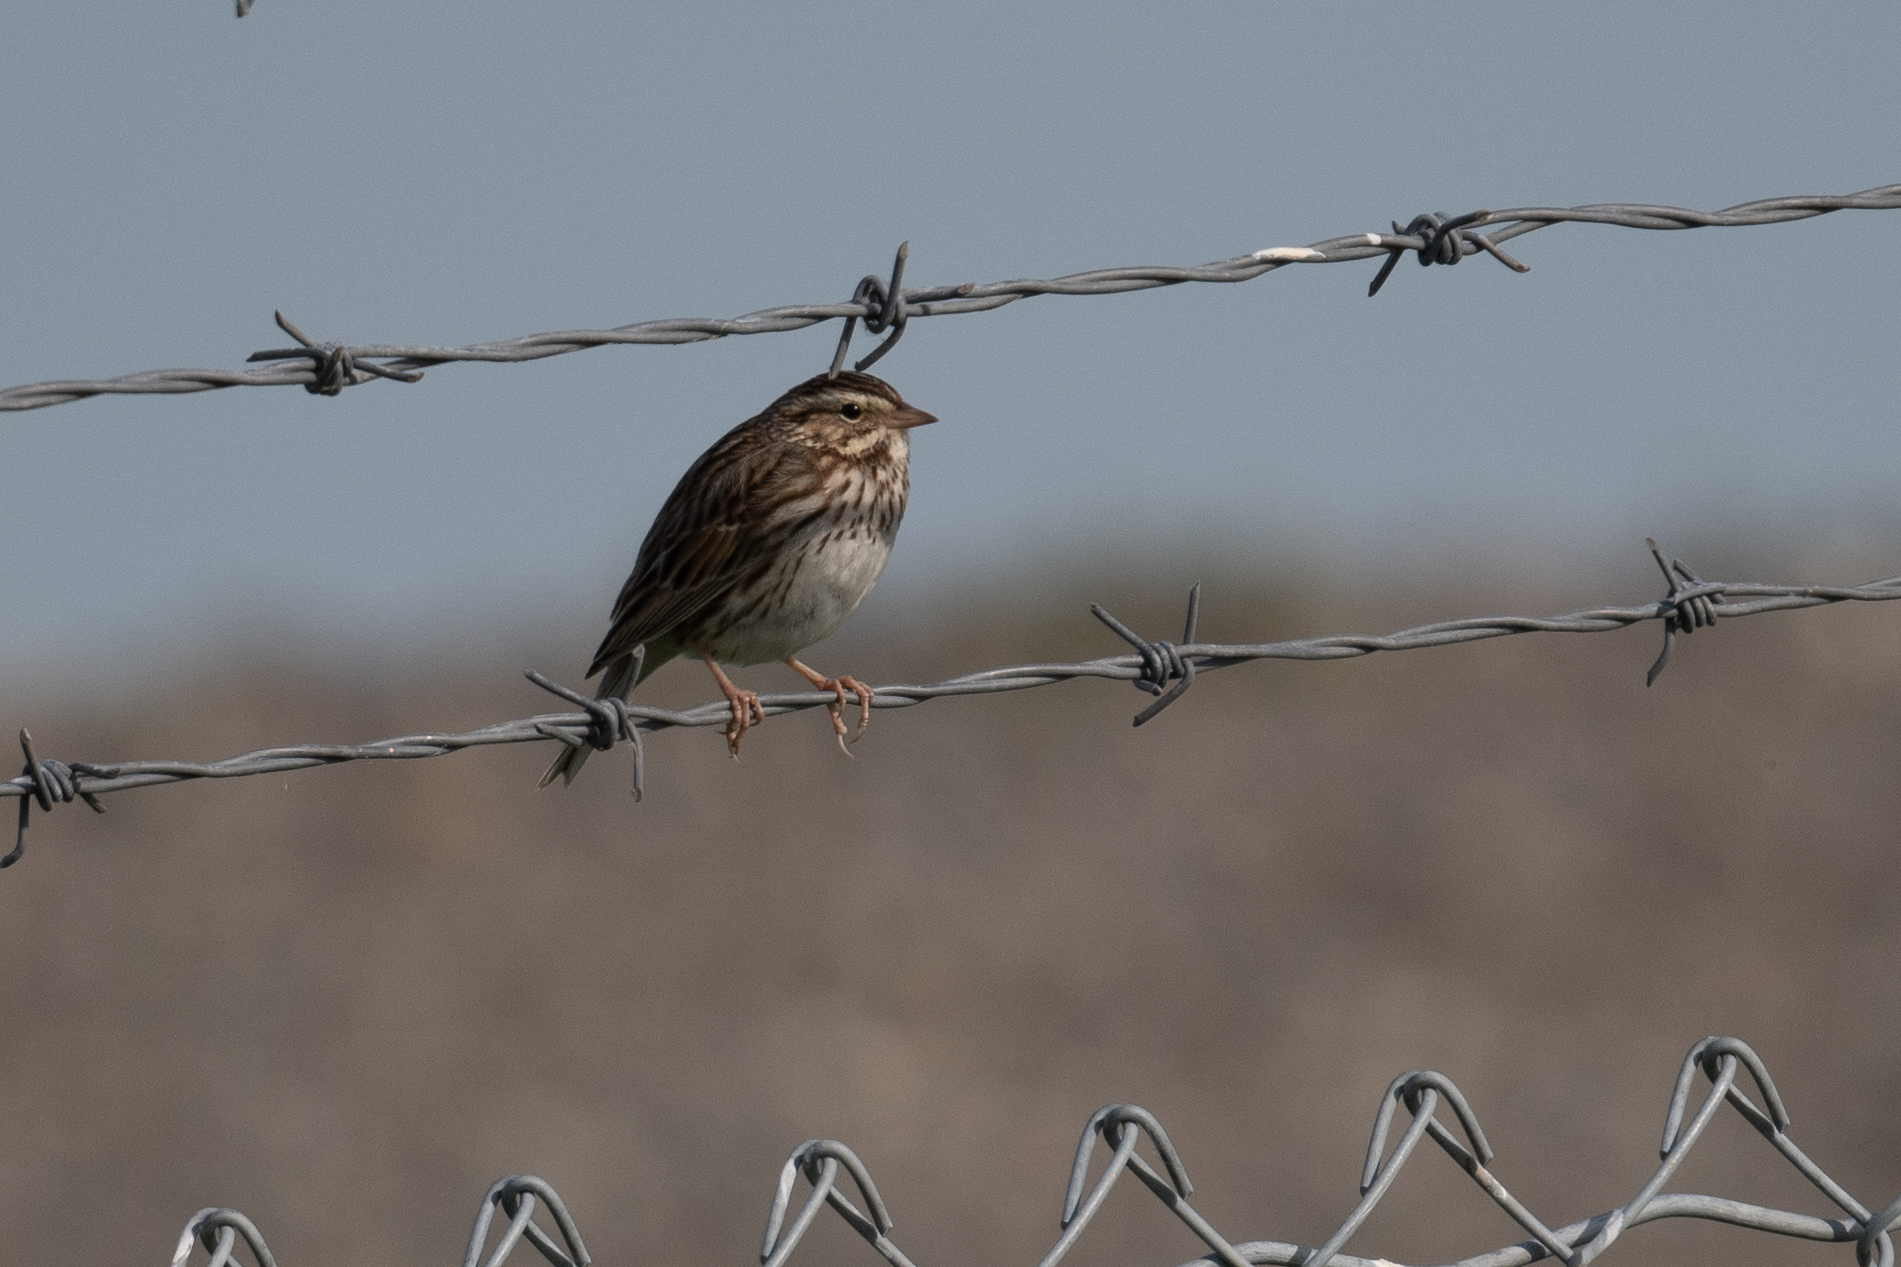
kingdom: Animalia
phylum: Chordata
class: Aves
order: Passeriformes
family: Passerellidae
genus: Passerculus
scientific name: Passerculus sandwichensis
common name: Savannah sparrow
